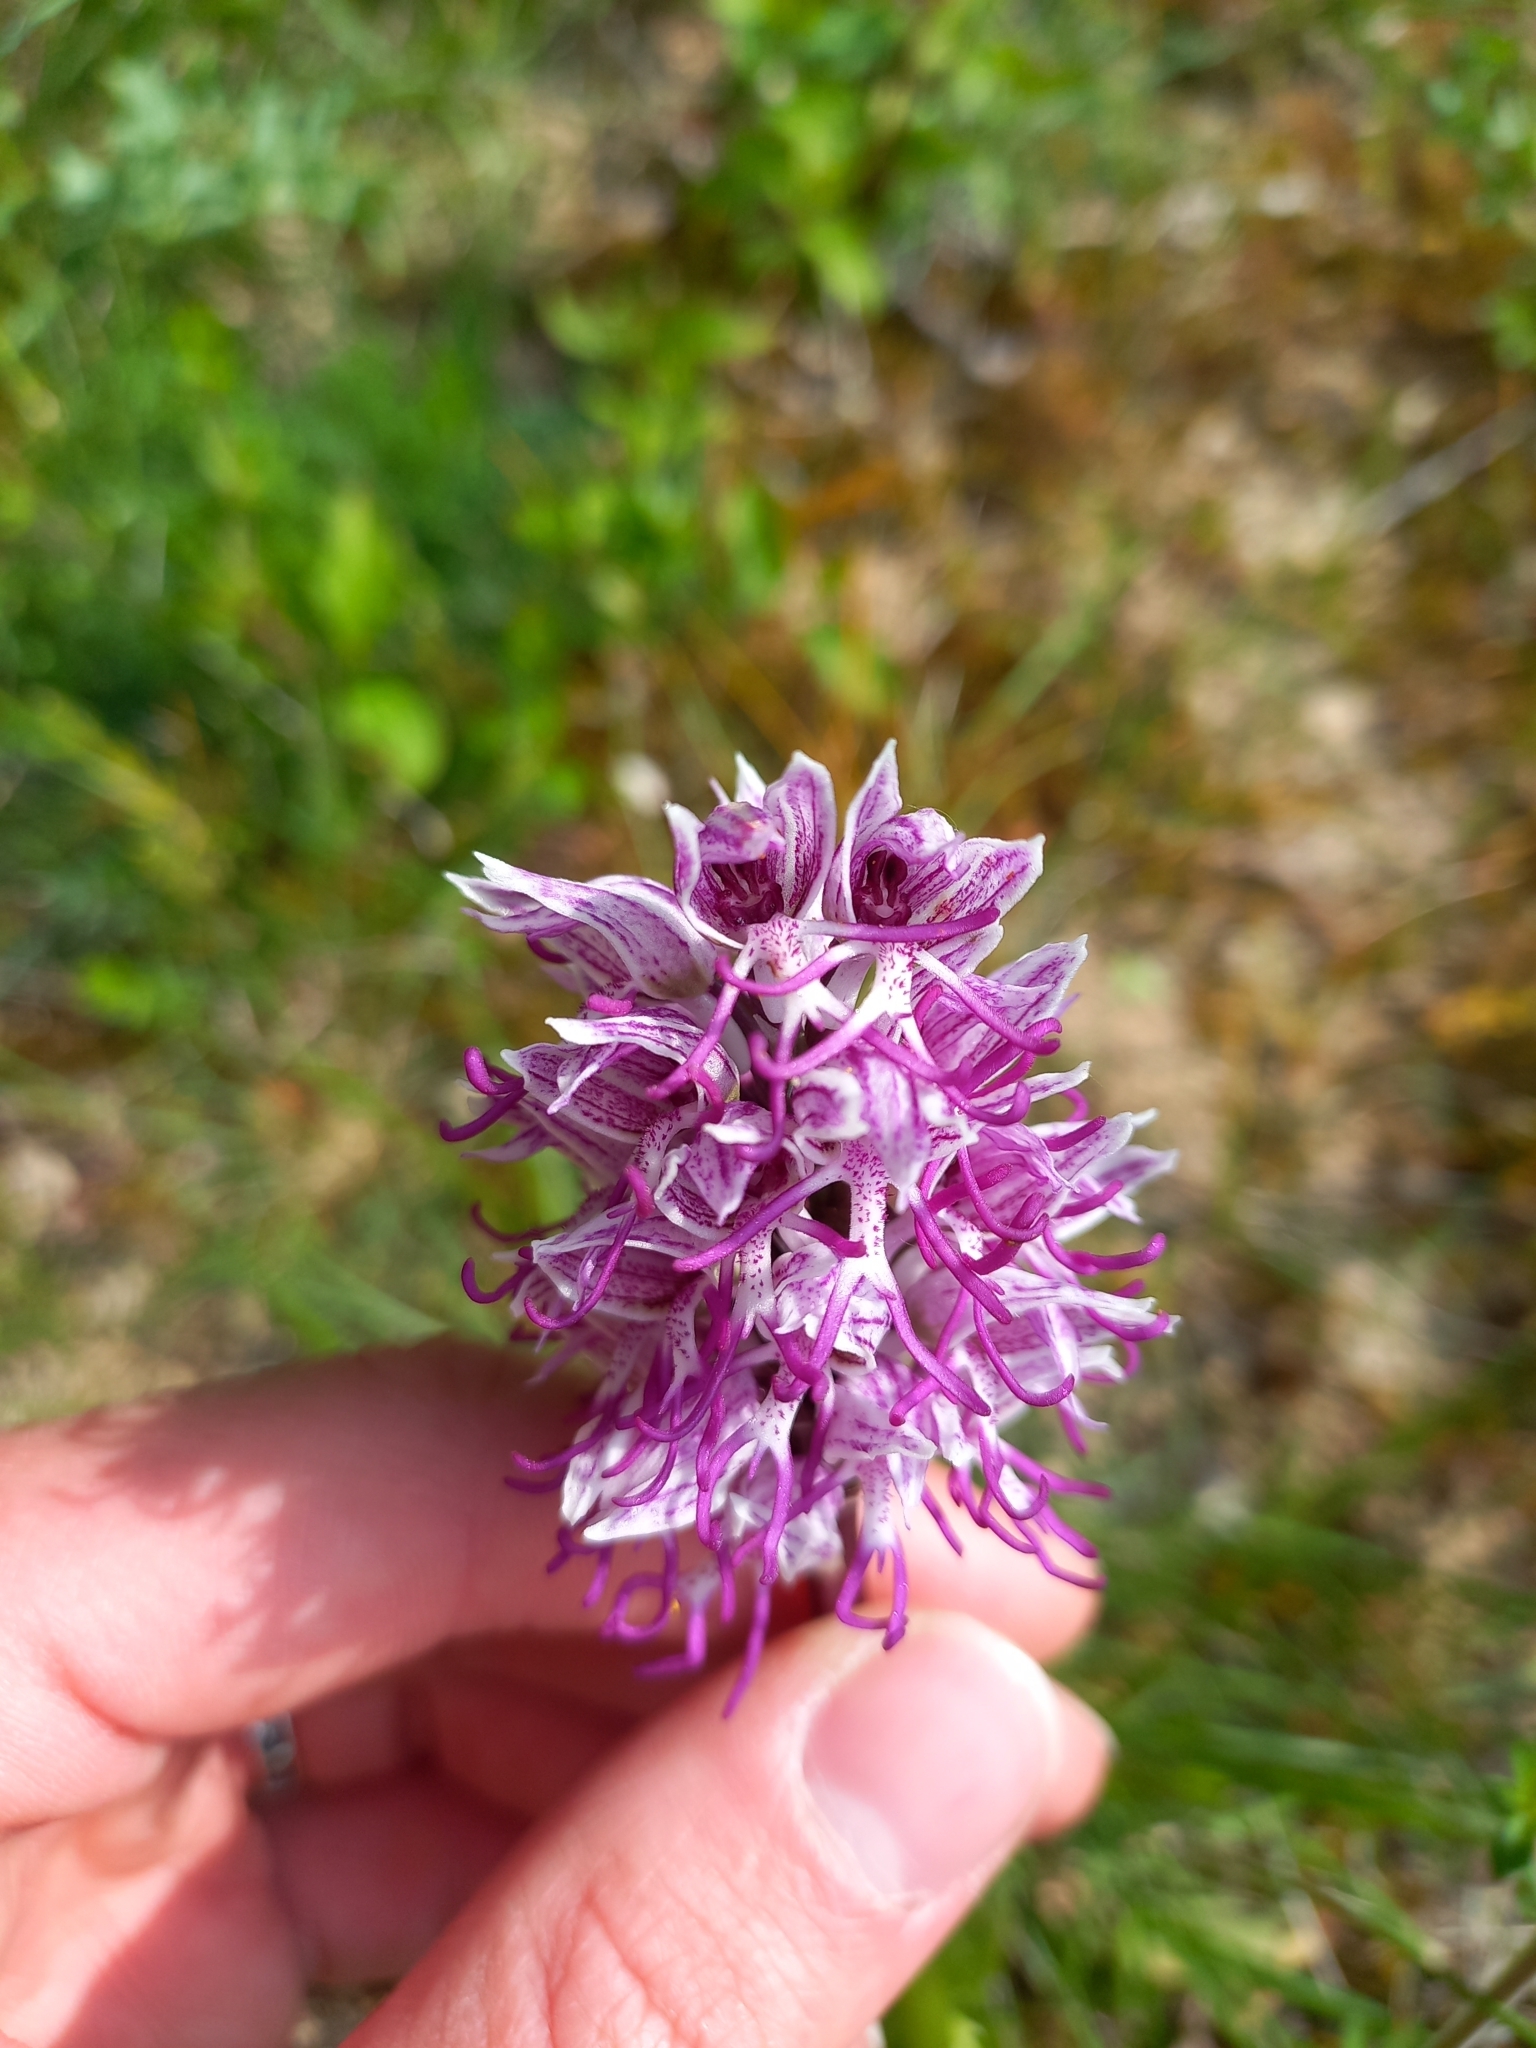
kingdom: Plantae
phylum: Tracheophyta
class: Liliopsida
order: Asparagales
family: Orchidaceae
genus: Orchis
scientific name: Orchis simia
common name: Monkey orchid
